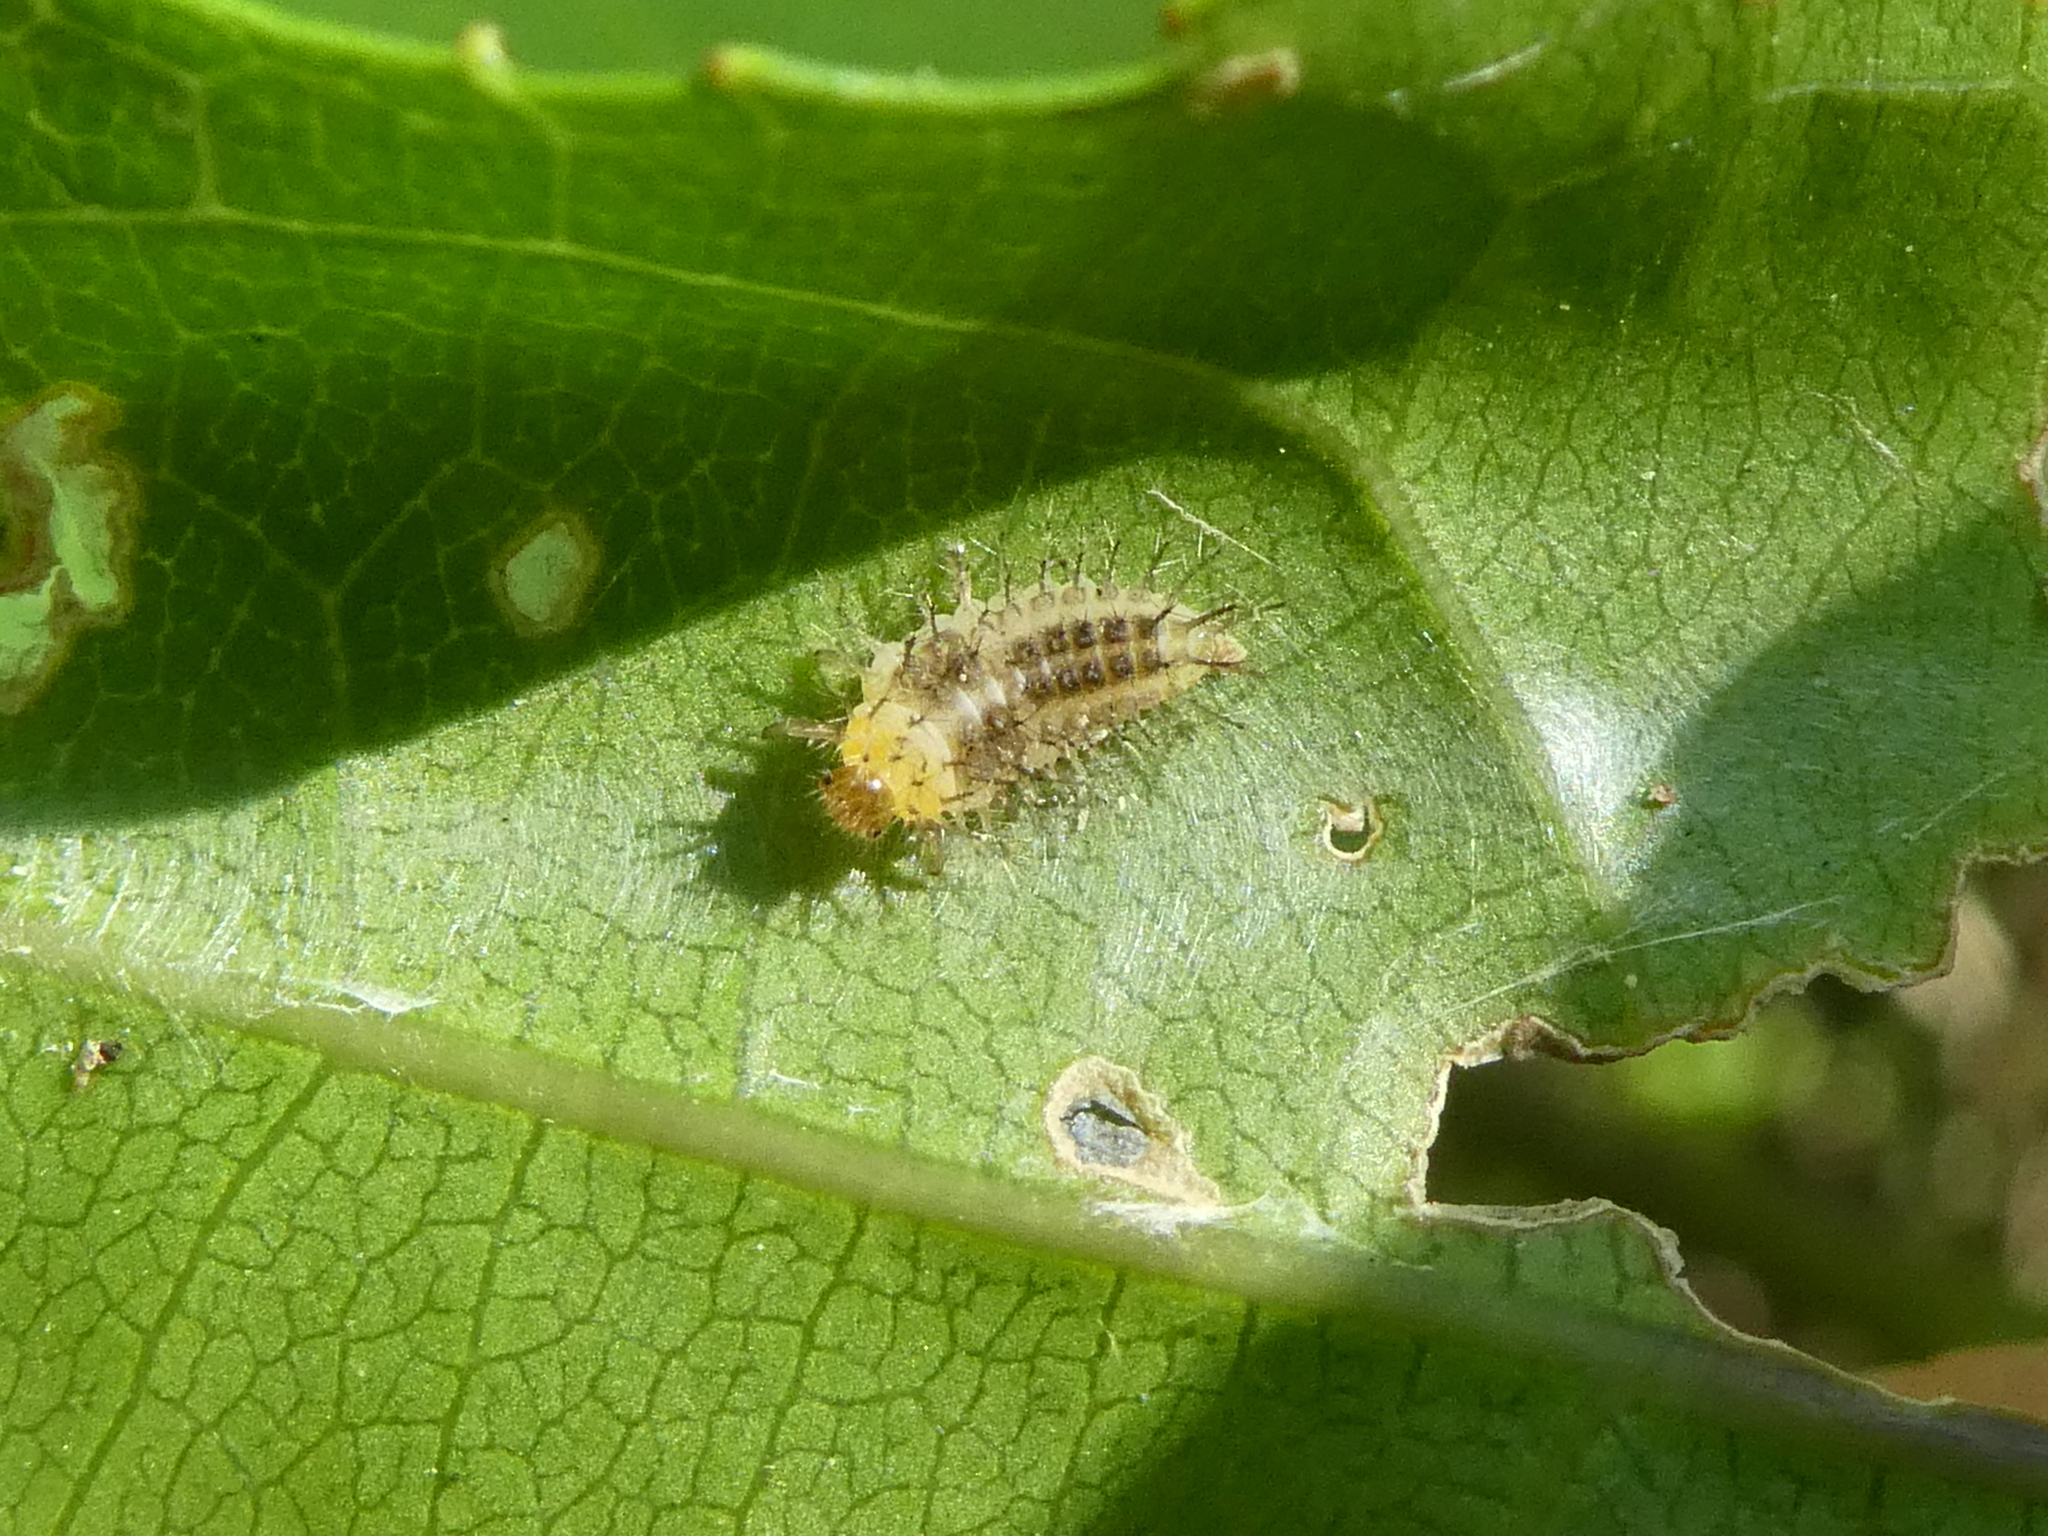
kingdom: Animalia
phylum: Arthropoda
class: Insecta
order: Coleoptera
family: Coccinellidae
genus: Halmus
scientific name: Halmus chalybeus
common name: Steel blue ladybird beetle
